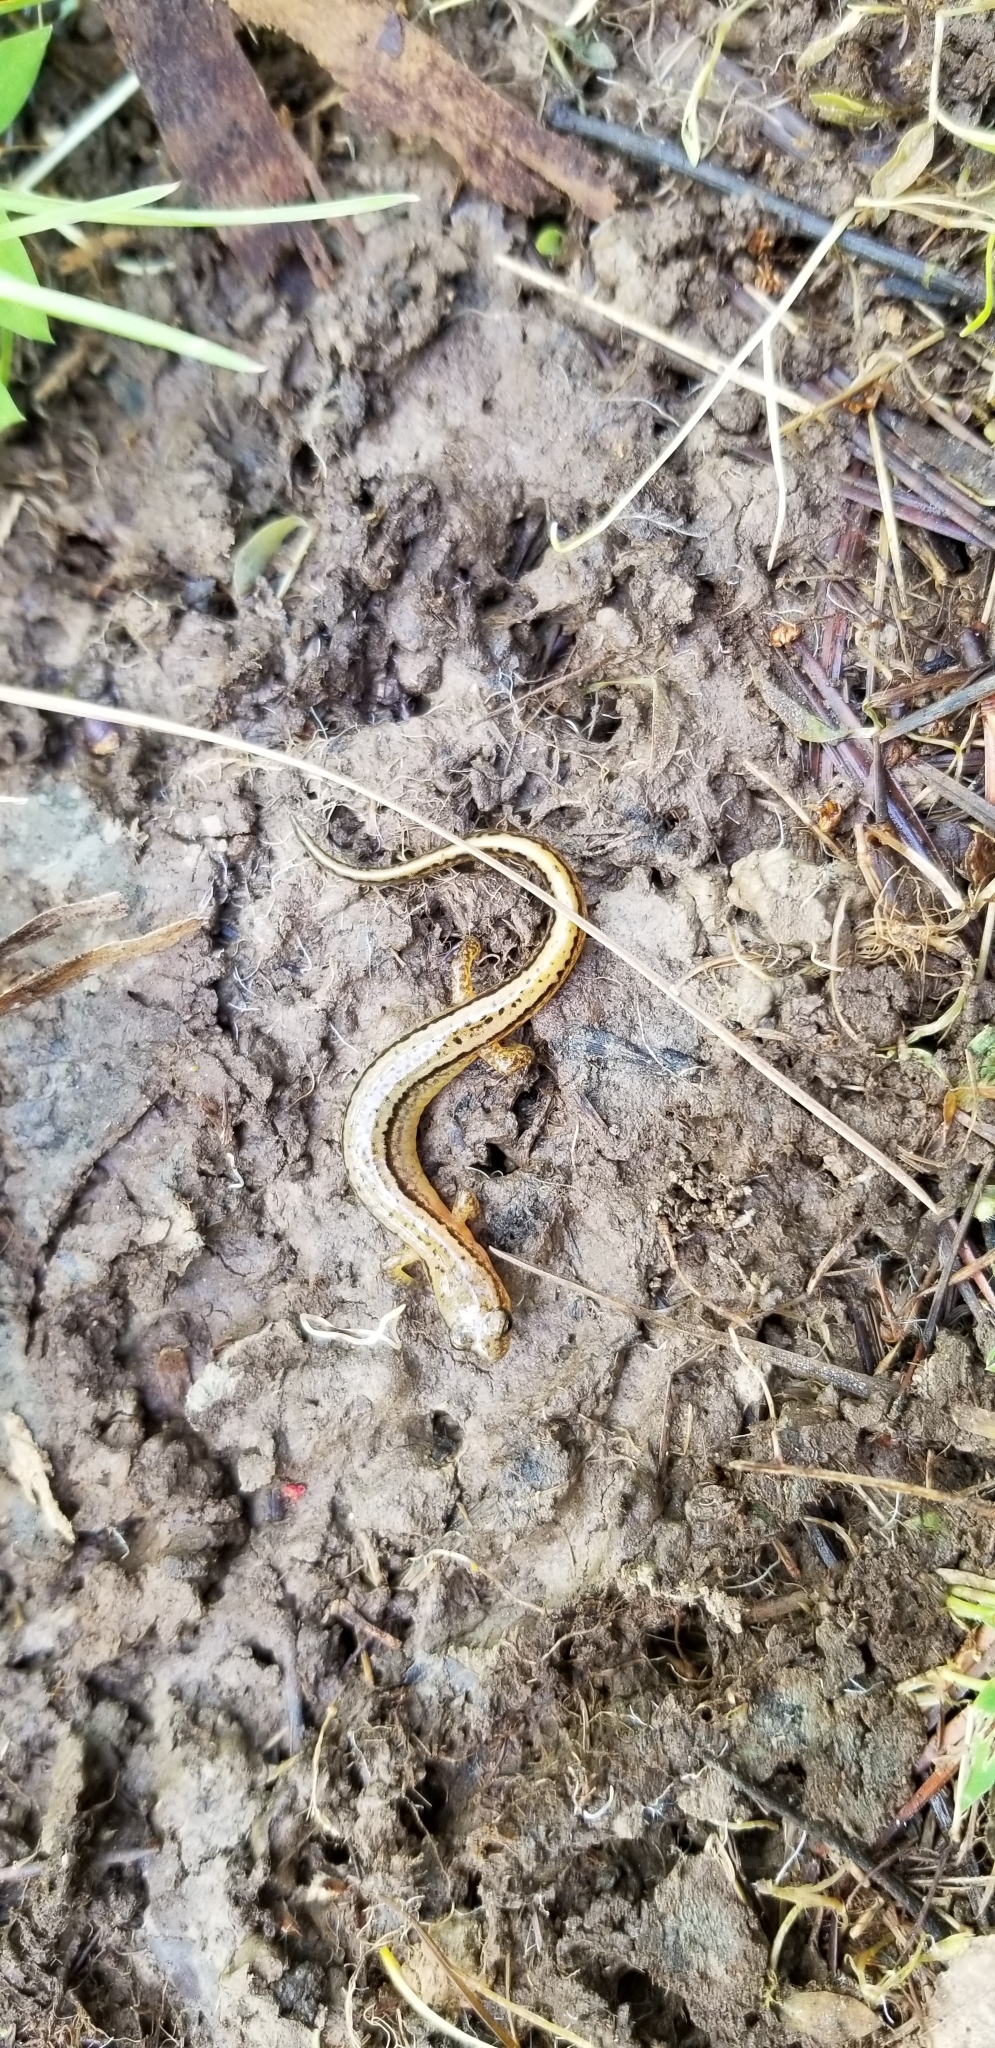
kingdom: Animalia
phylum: Chordata
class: Amphibia
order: Caudata
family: Plethodontidae
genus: Eurycea
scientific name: Eurycea bislineata
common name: Northern two-lined salamander
